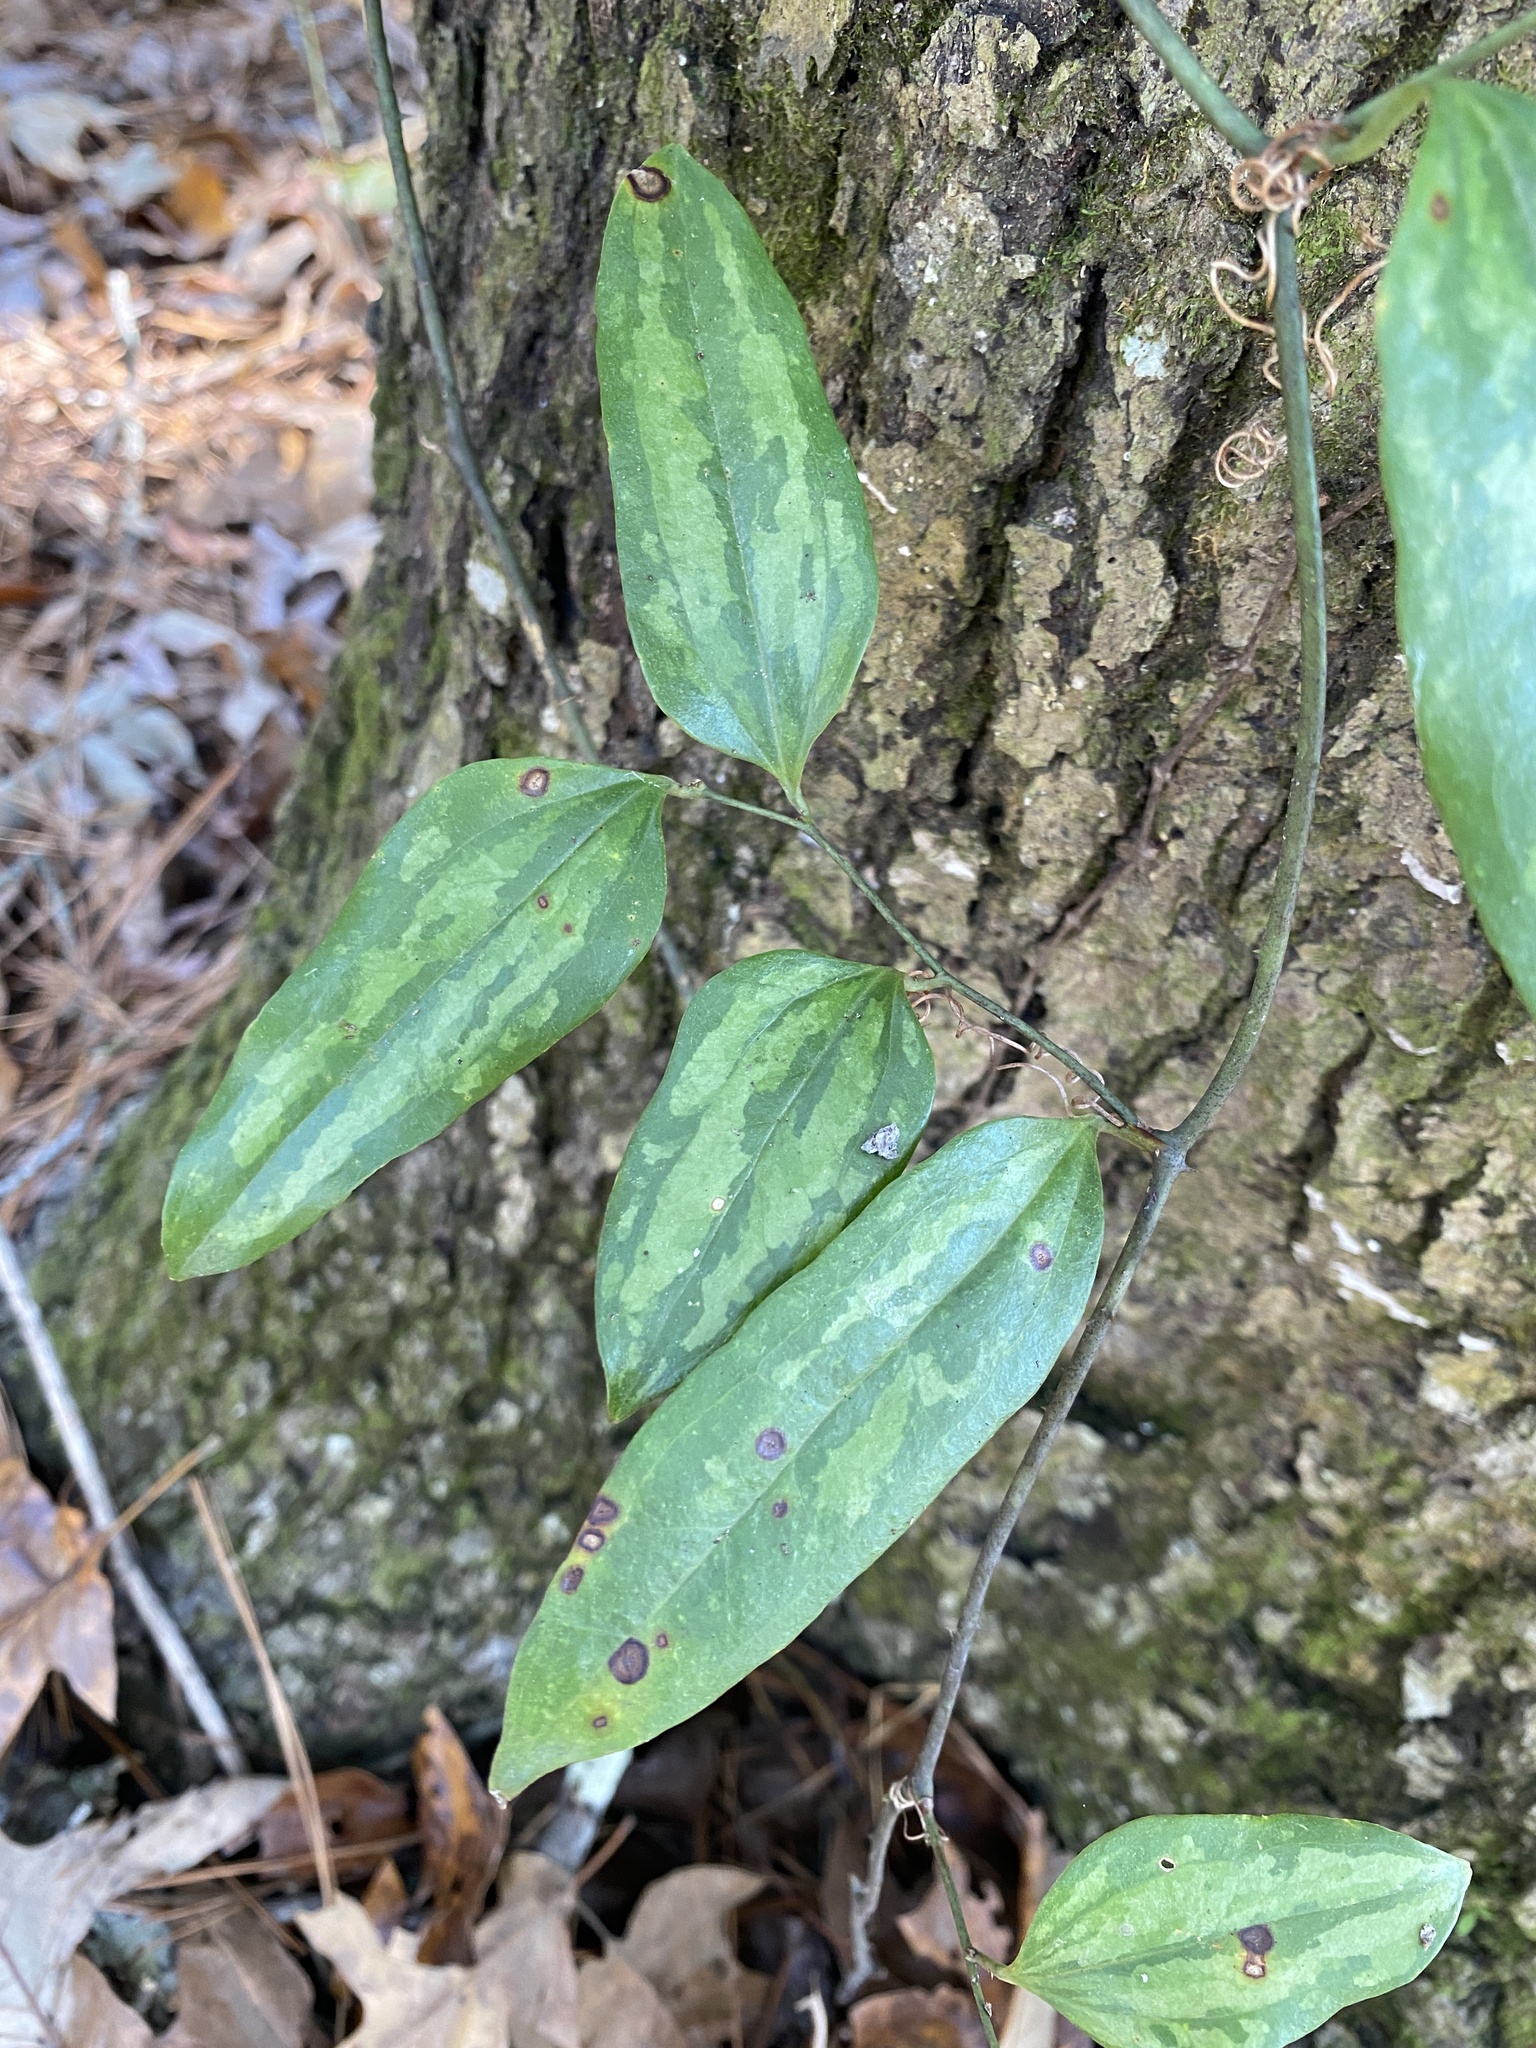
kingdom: Plantae
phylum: Tracheophyta
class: Liliopsida
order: Liliales
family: Smilacaceae
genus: Smilax
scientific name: Smilax maritima
